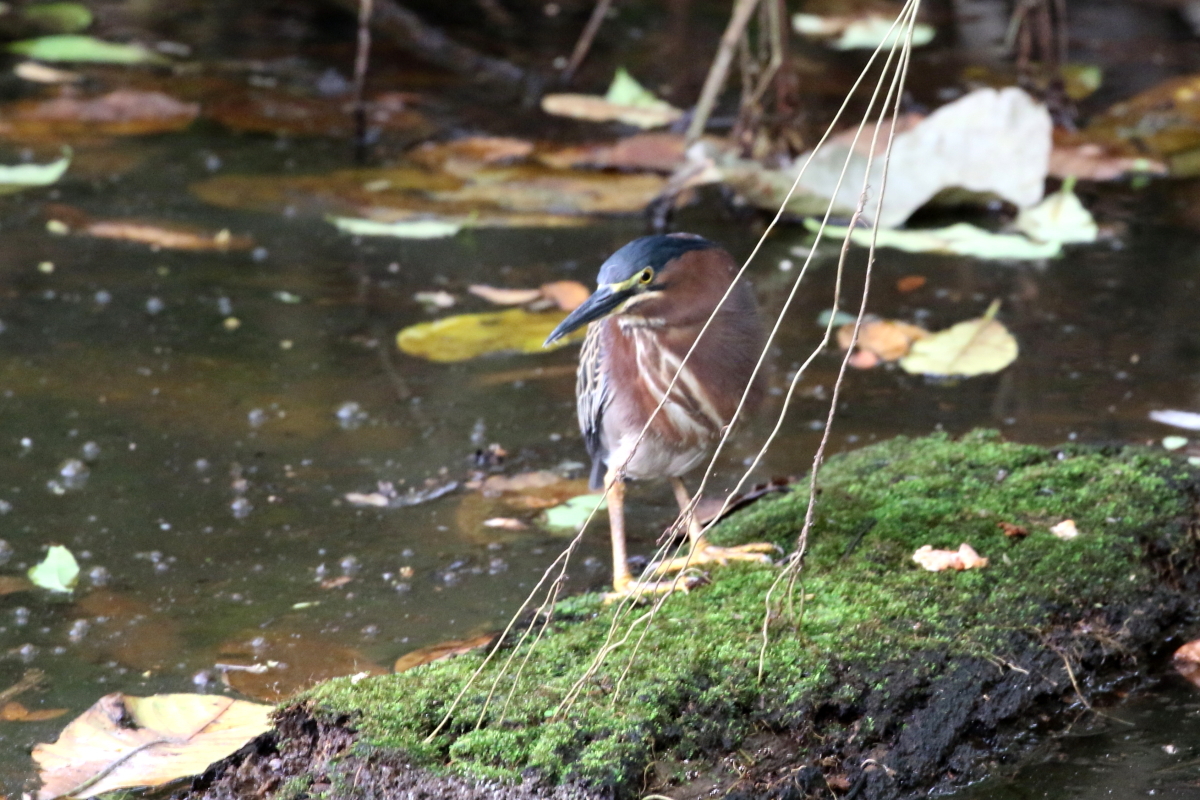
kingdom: Animalia
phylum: Chordata
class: Aves
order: Pelecaniformes
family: Ardeidae
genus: Butorides
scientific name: Butorides virescens
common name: Green heron
